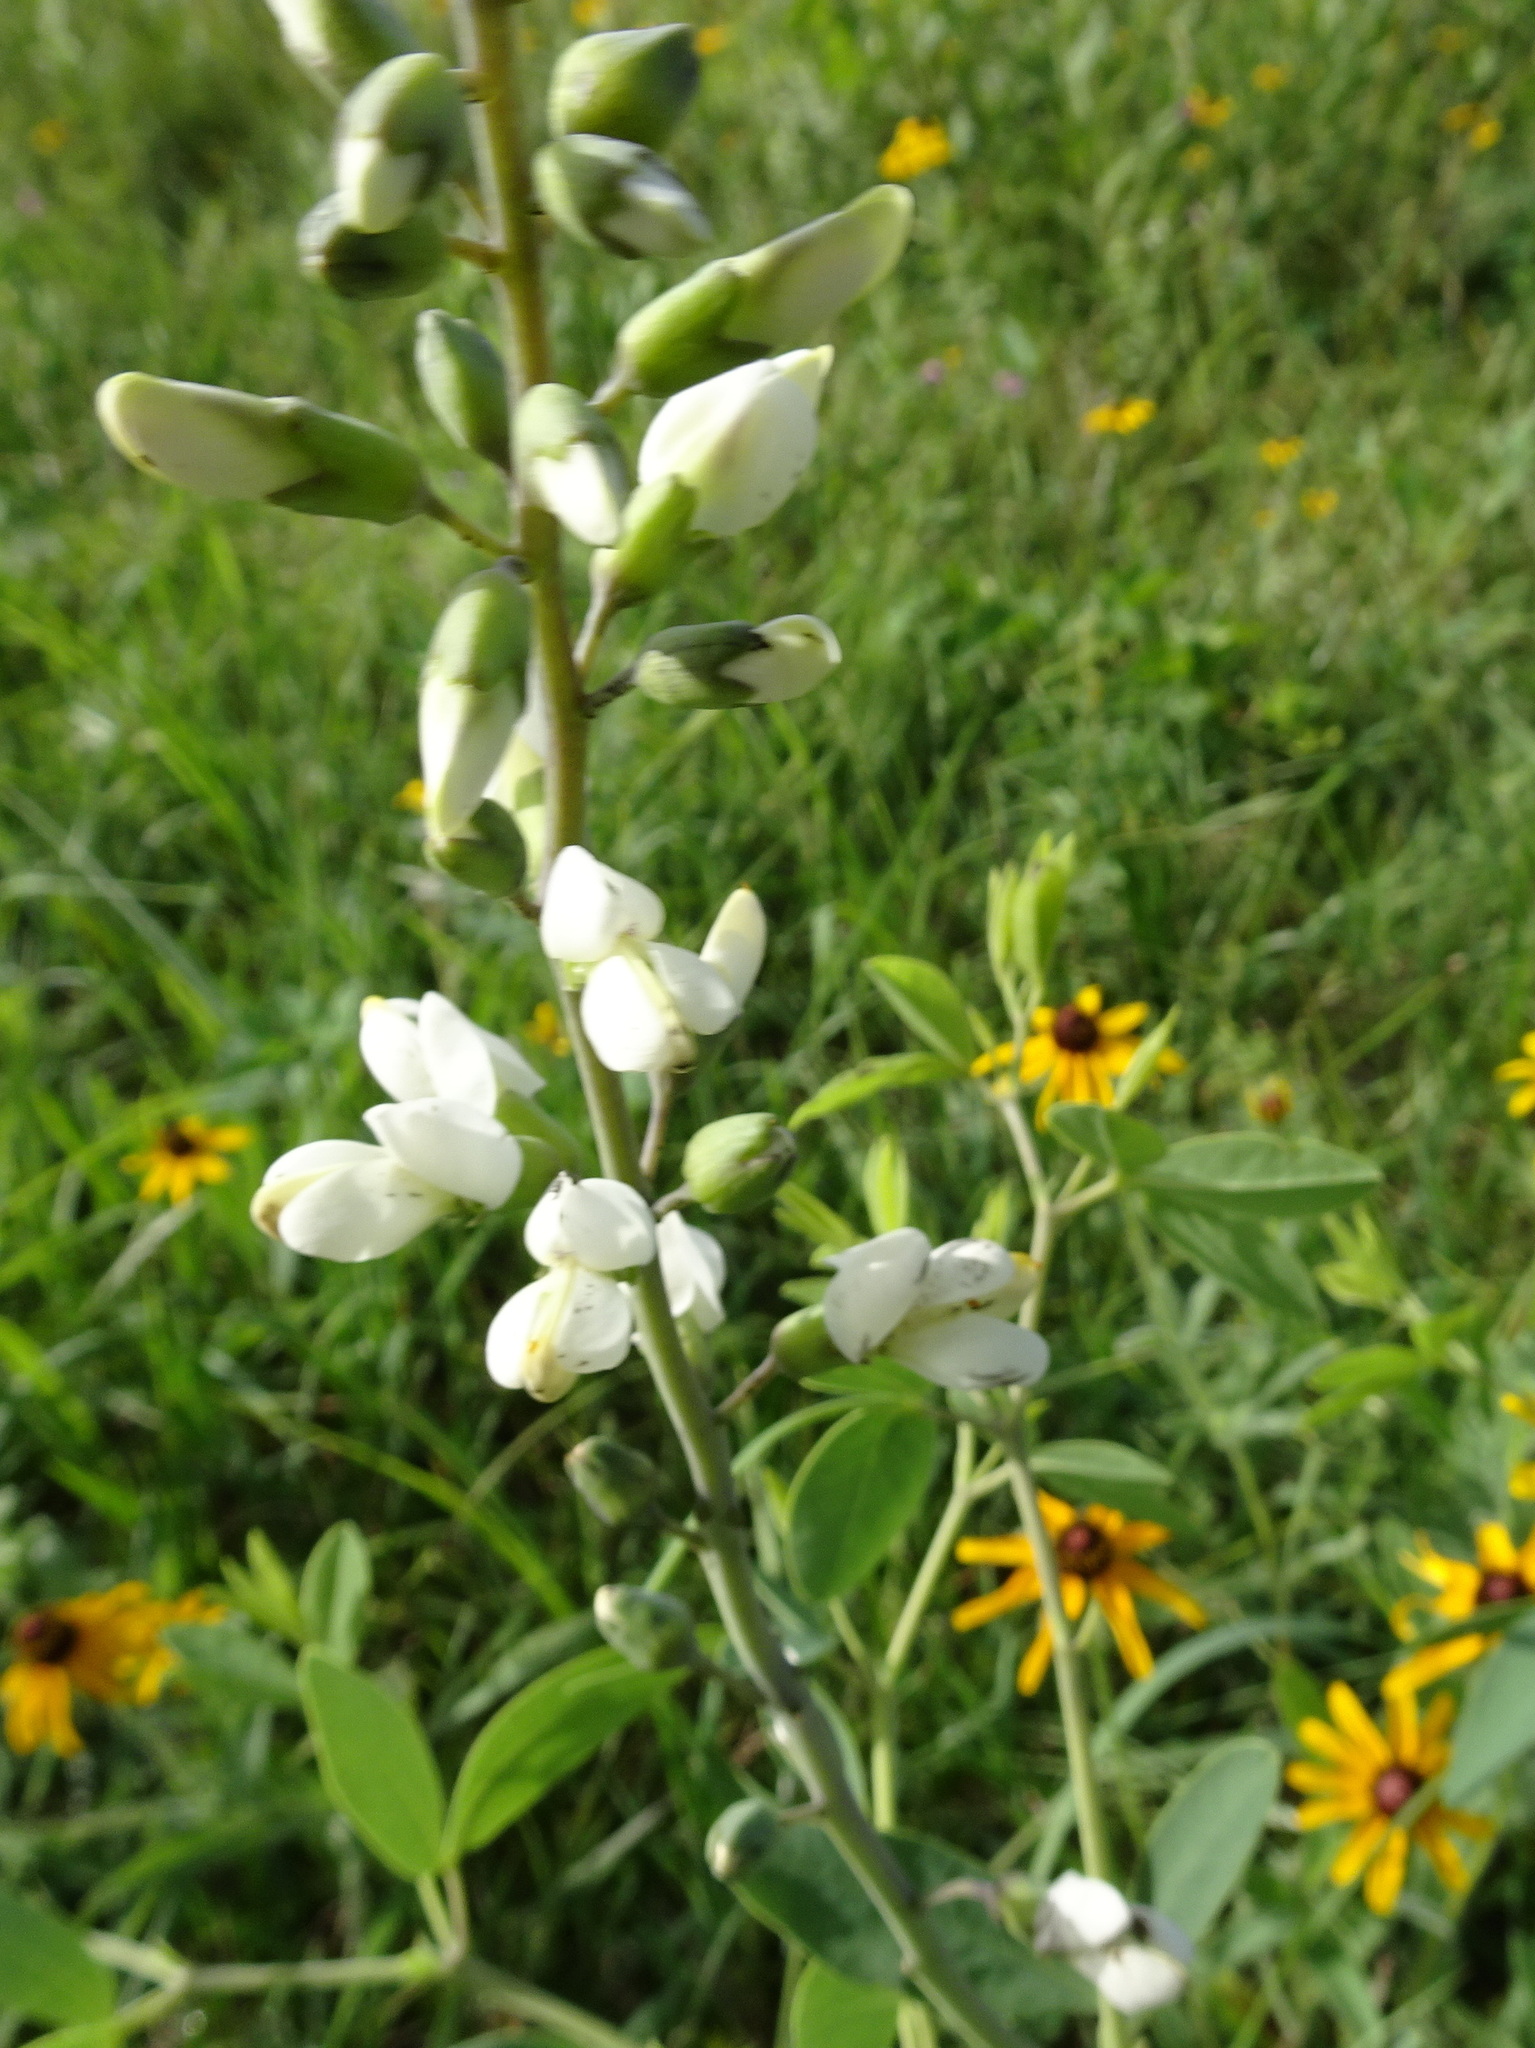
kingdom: Plantae
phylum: Tracheophyta
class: Magnoliopsida
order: Fabales
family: Fabaceae
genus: Baptisia
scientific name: Baptisia alba
